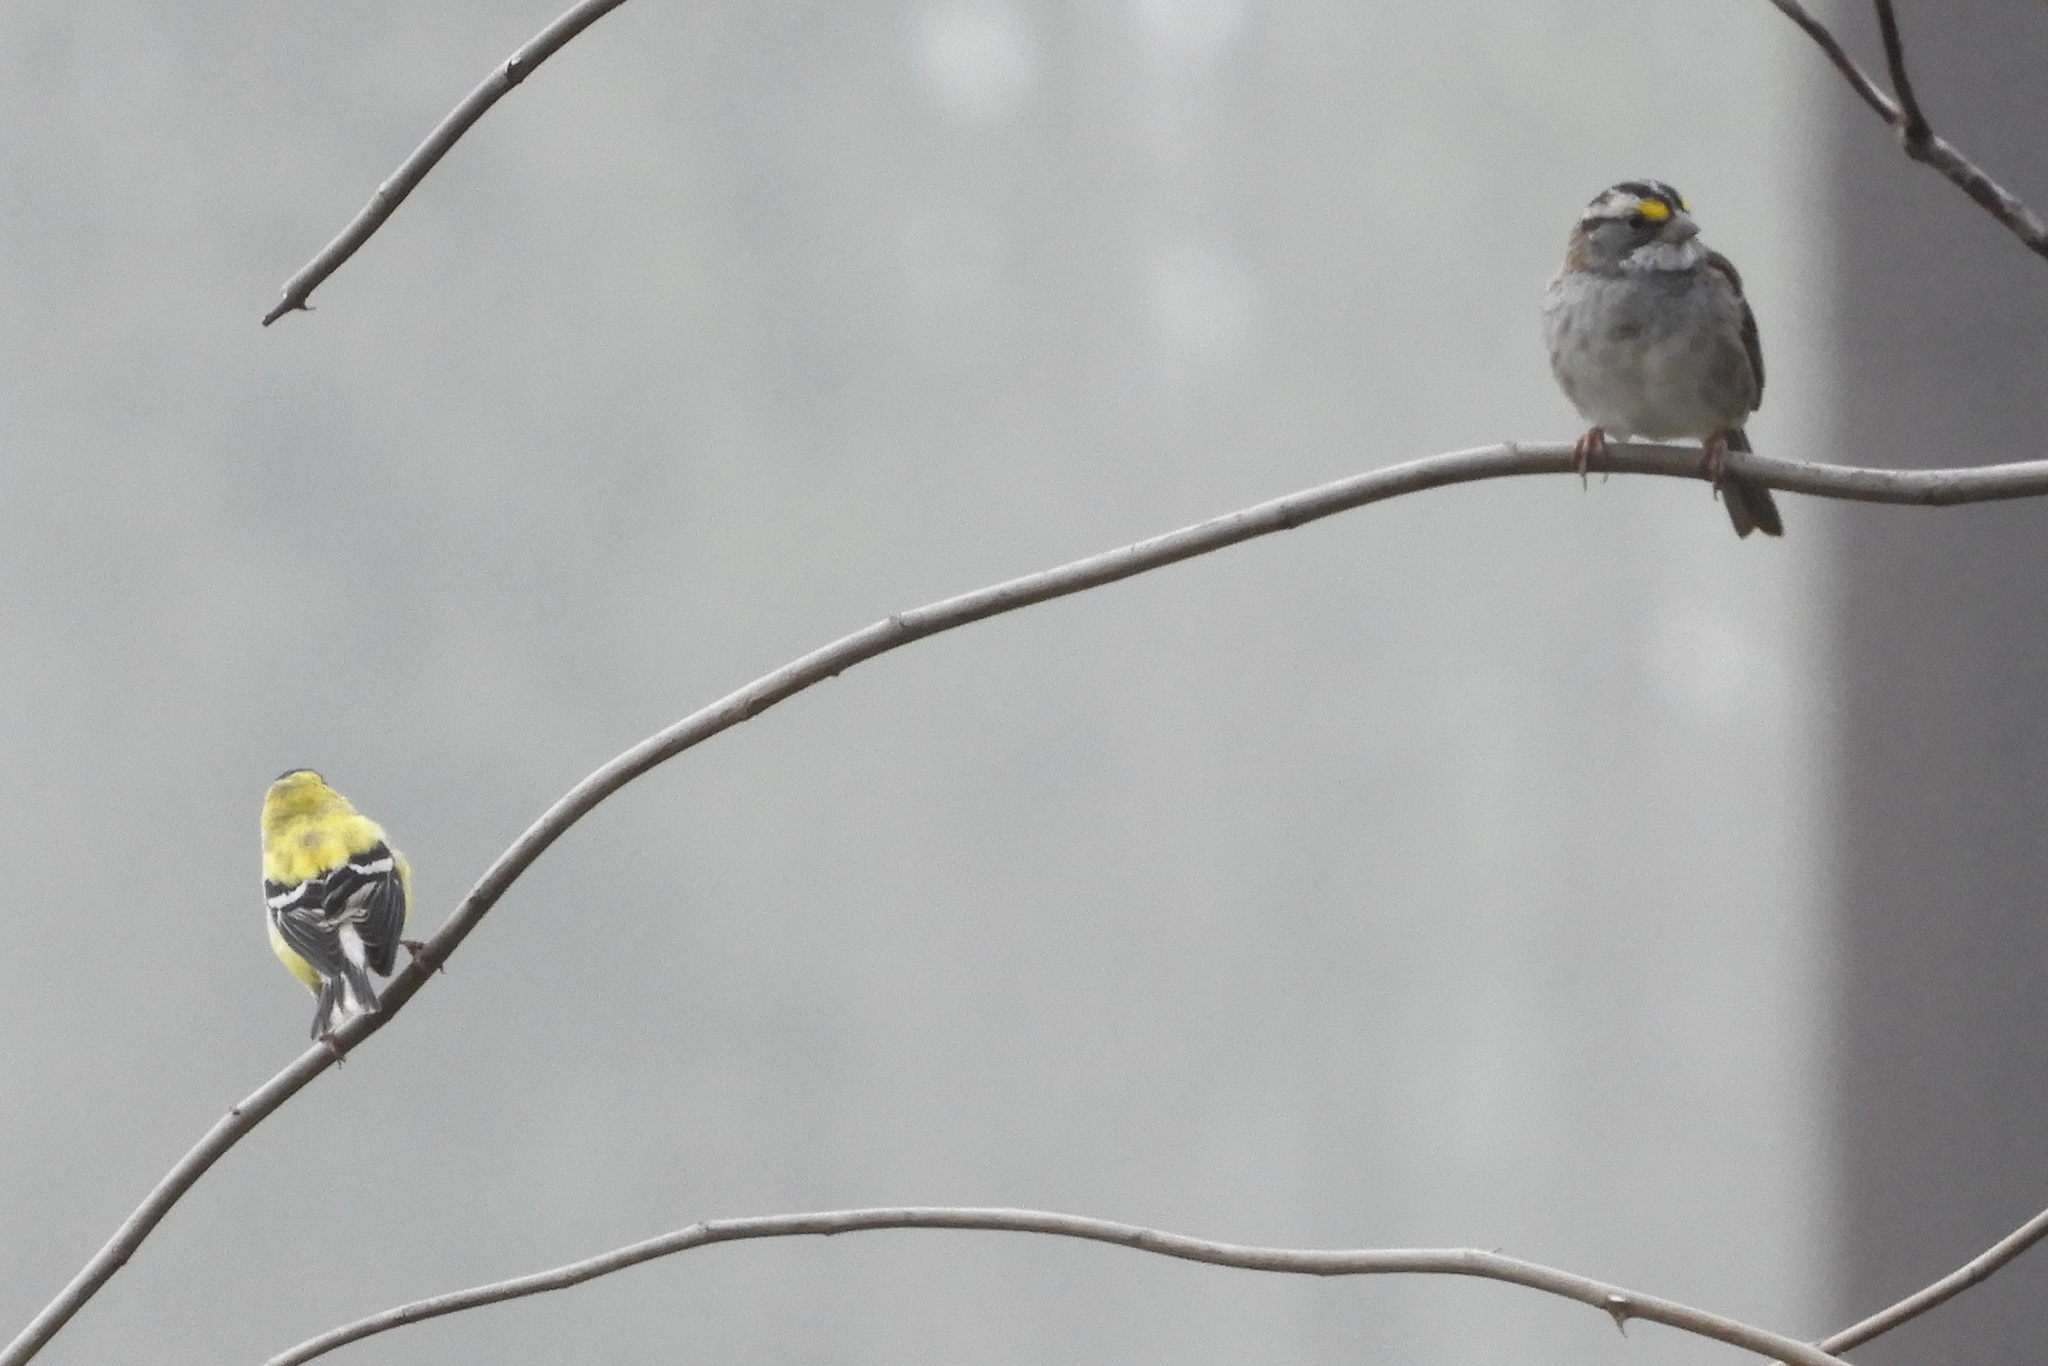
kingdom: Animalia
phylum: Chordata
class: Aves
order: Passeriformes
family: Passerellidae
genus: Zonotrichia
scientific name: Zonotrichia albicollis
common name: White-throated sparrow
